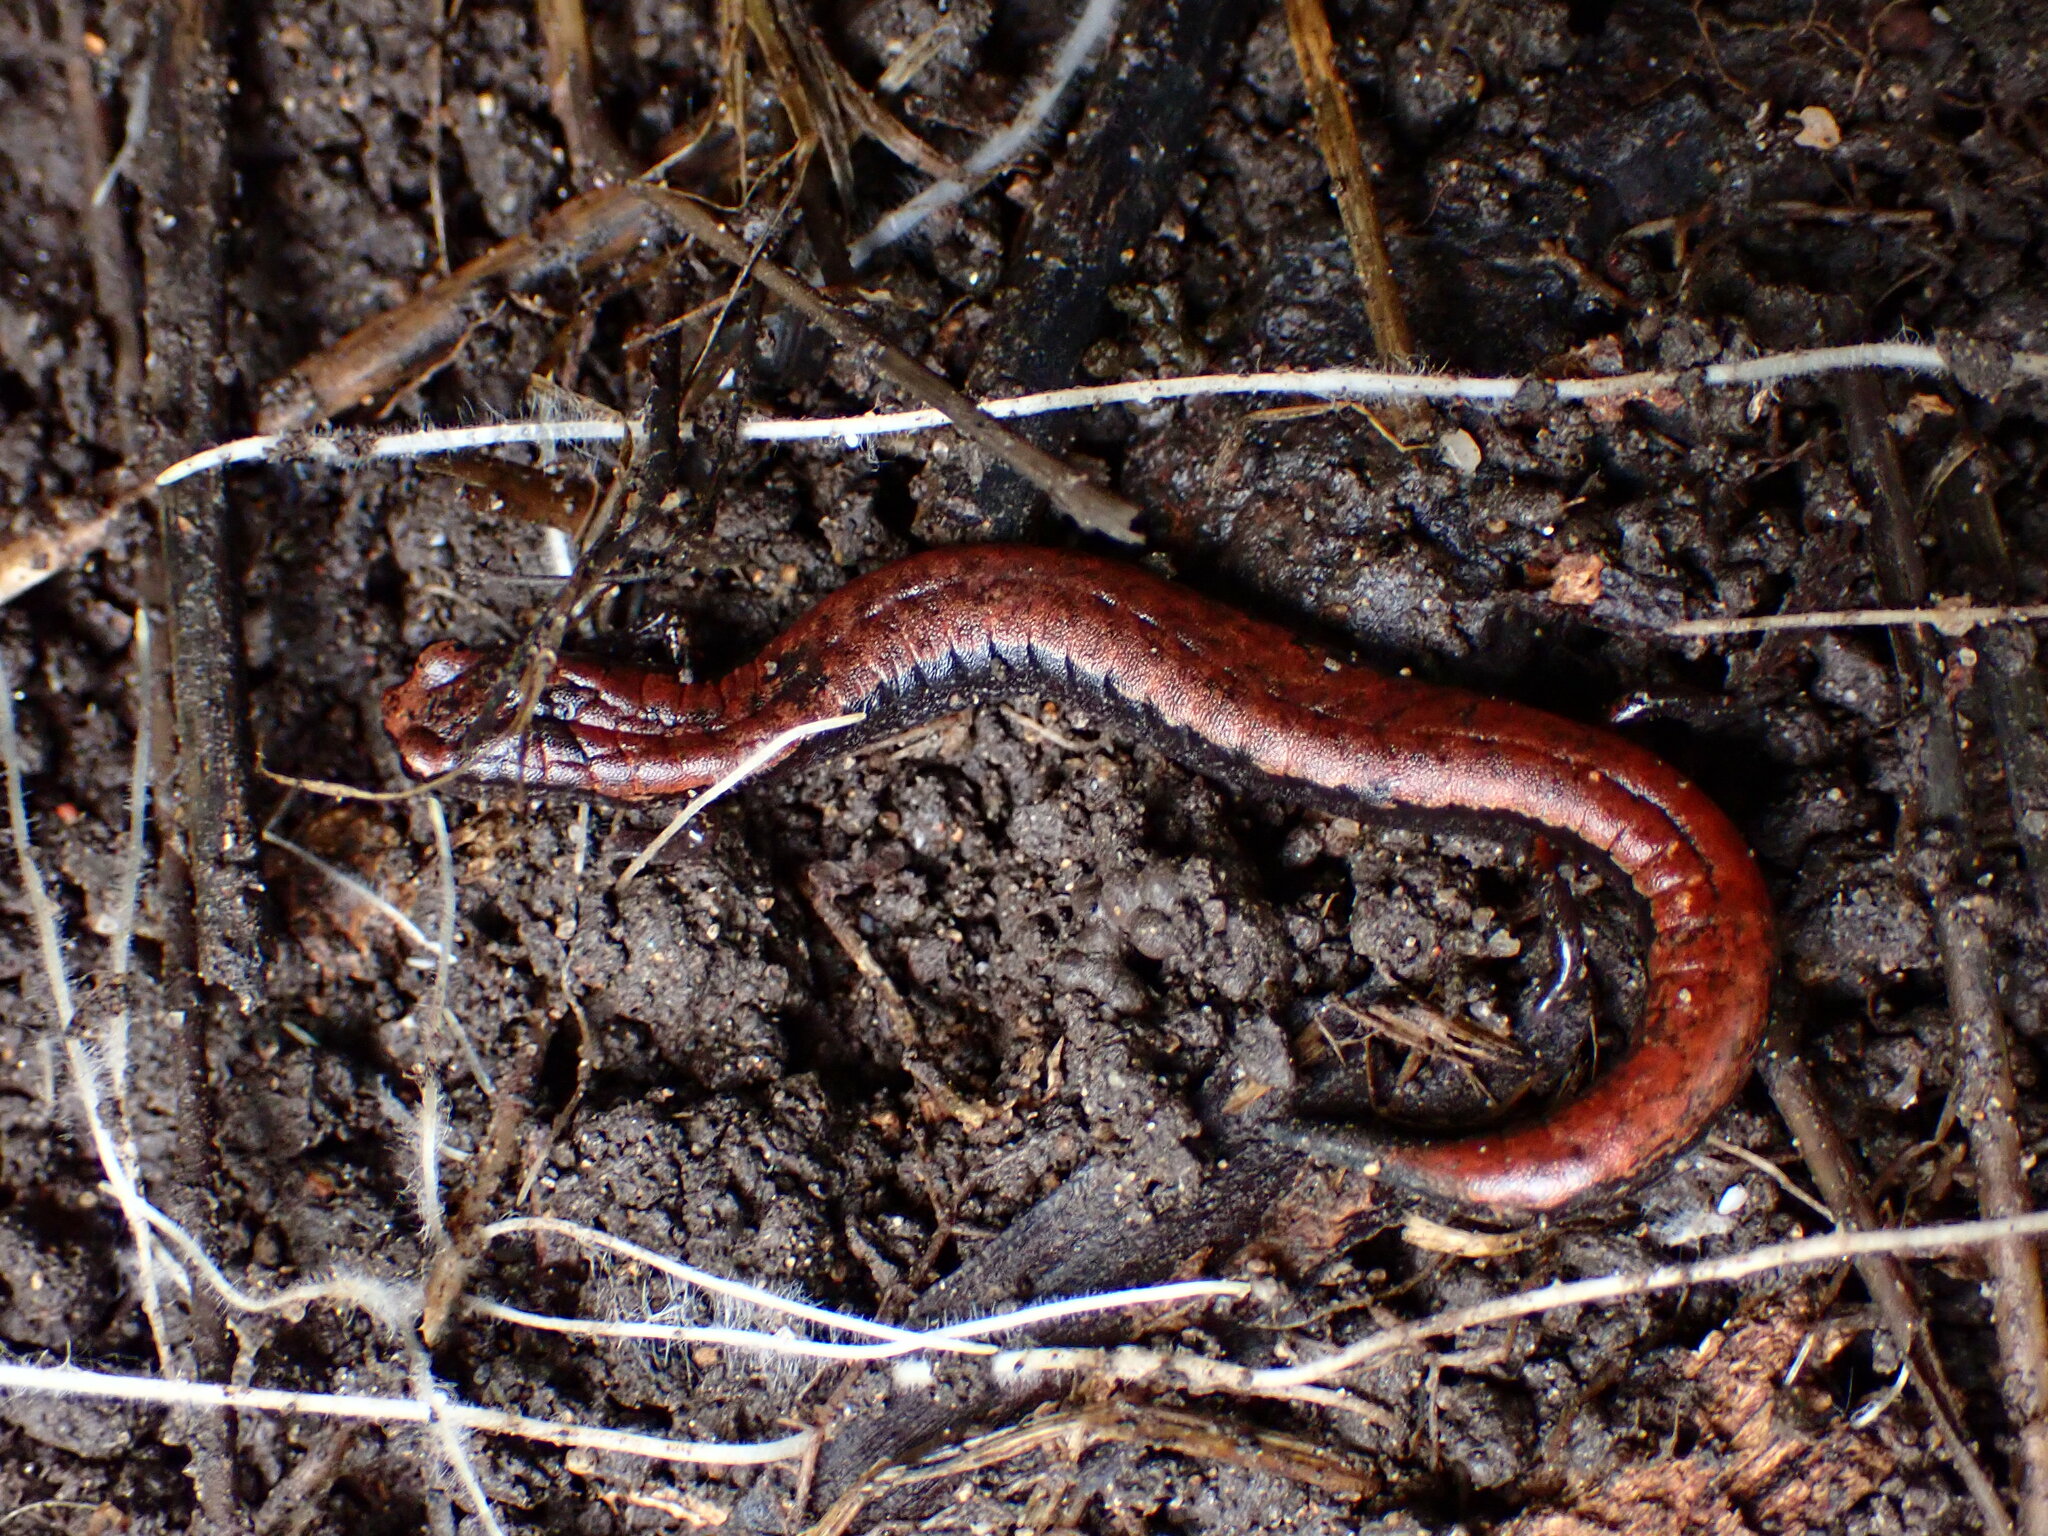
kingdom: Animalia
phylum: Chordata
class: Amphibia
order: Caudata
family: Plethodontidae
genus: Batrachoseps
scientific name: Batrachoseps attenuatus
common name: California slender salamander
